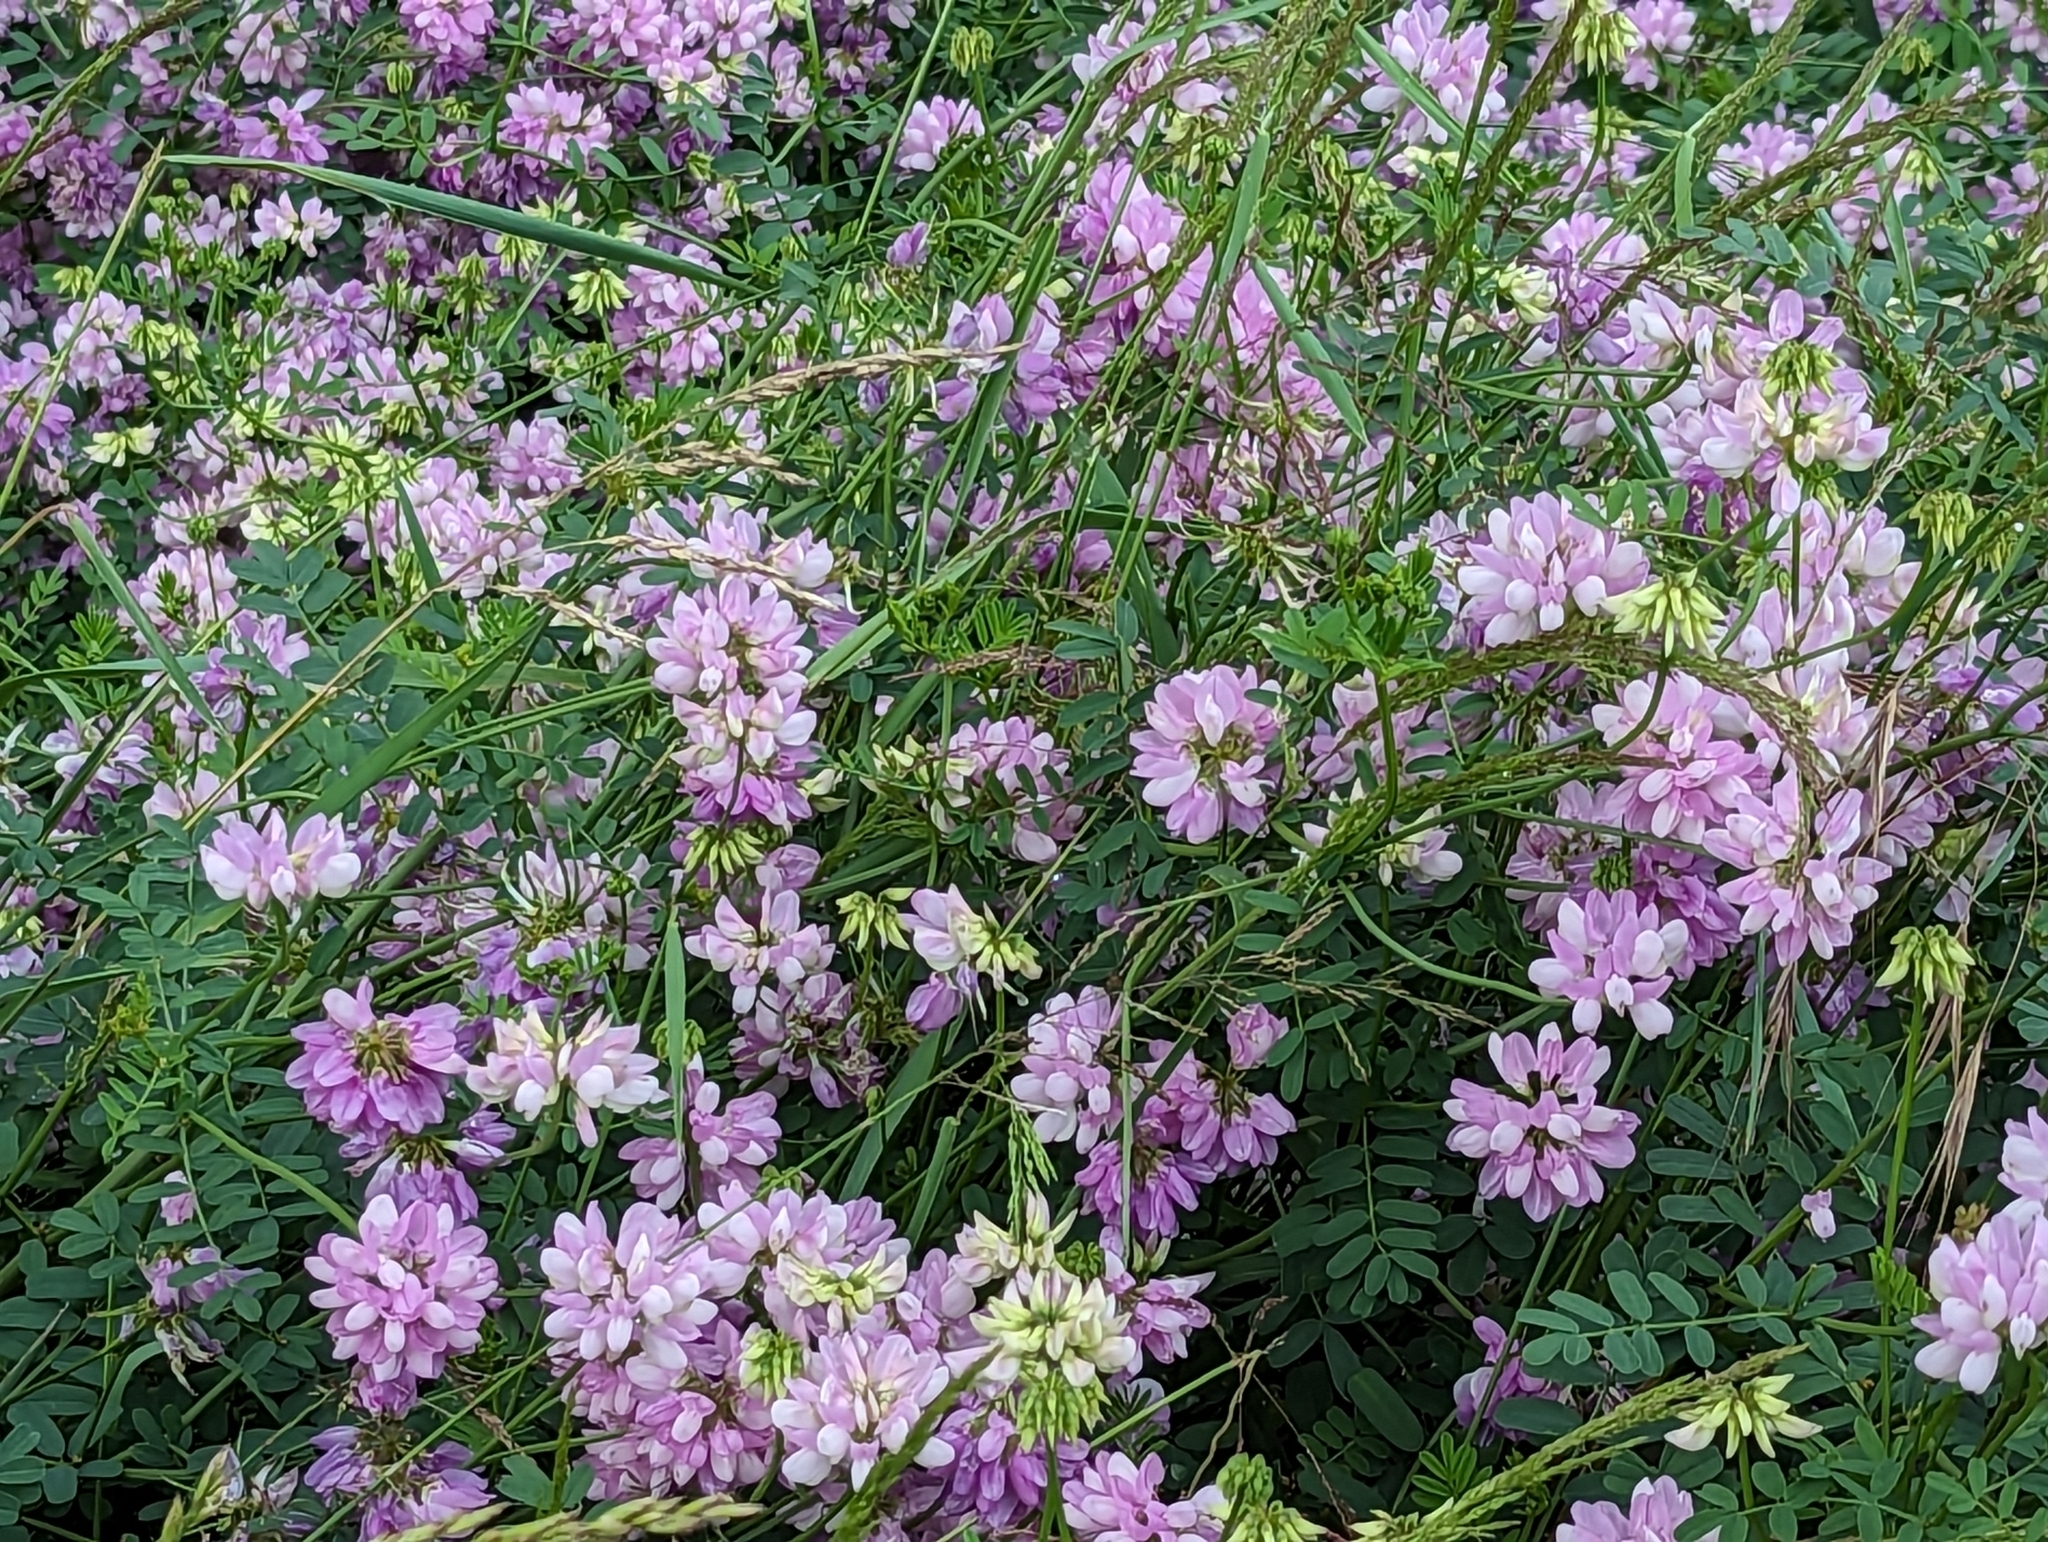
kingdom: Plantae
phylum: Tracheophyta
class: Magnoliopsida
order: Fabales
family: Fabaceae
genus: Coronilla
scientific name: Coronilla varia
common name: Crownvetch
